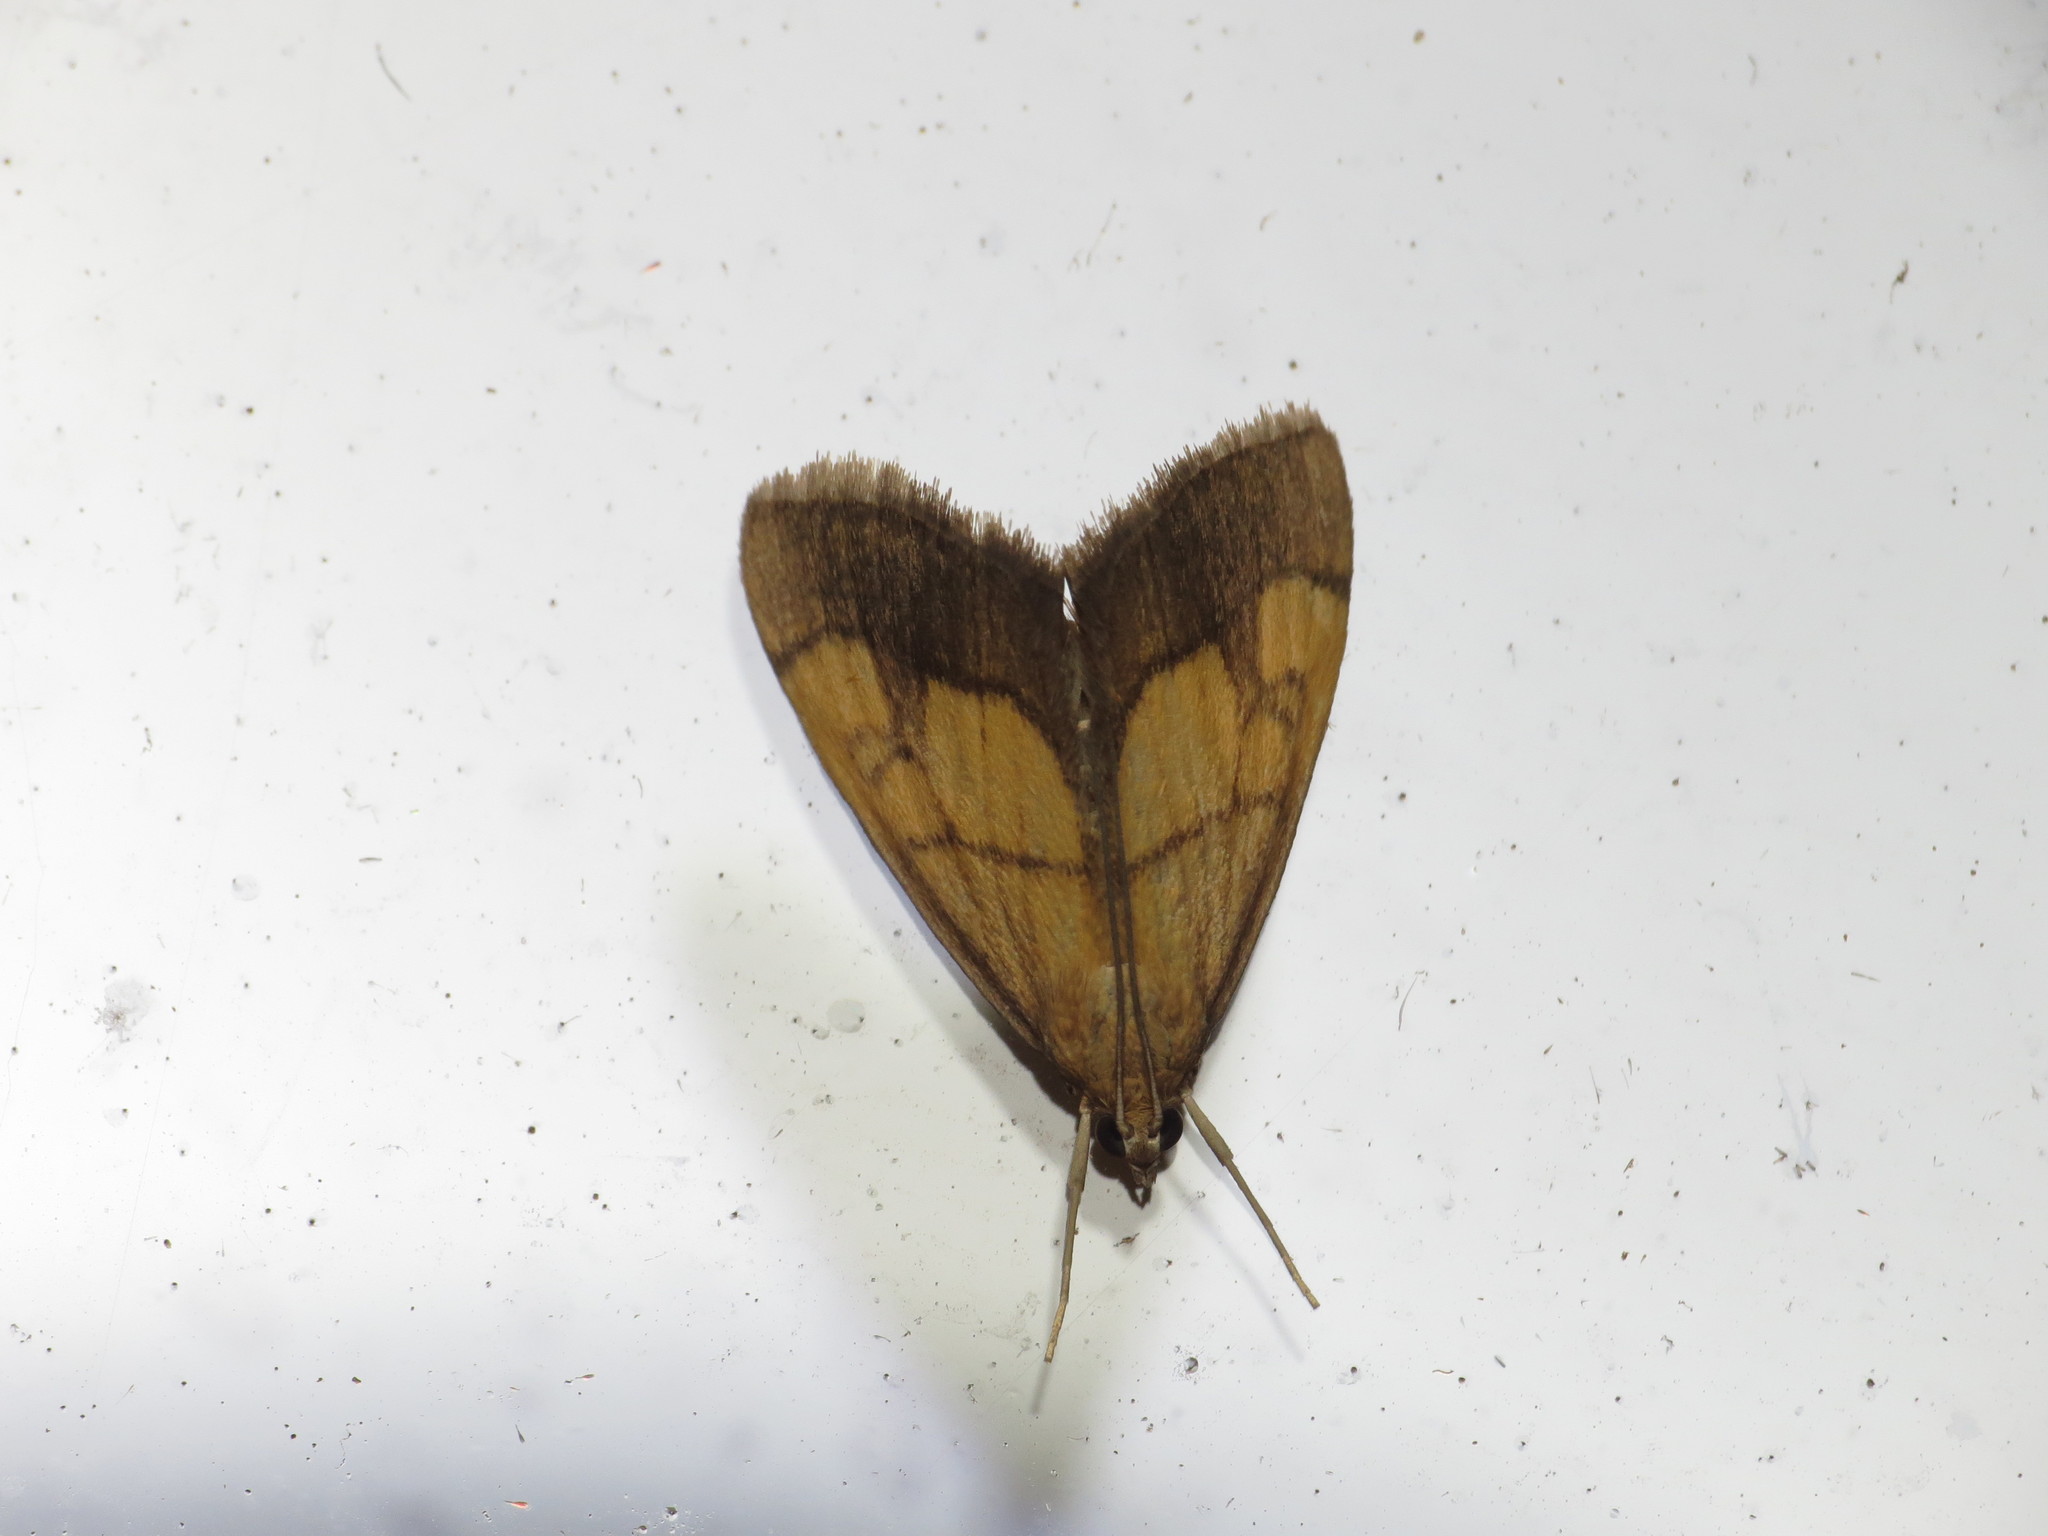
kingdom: Animalia
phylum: Arthropoda
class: Insecta
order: Lepidoptera
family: Crambidae
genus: Evergestis
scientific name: Evergestis limbata
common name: Dark bordered pearl
